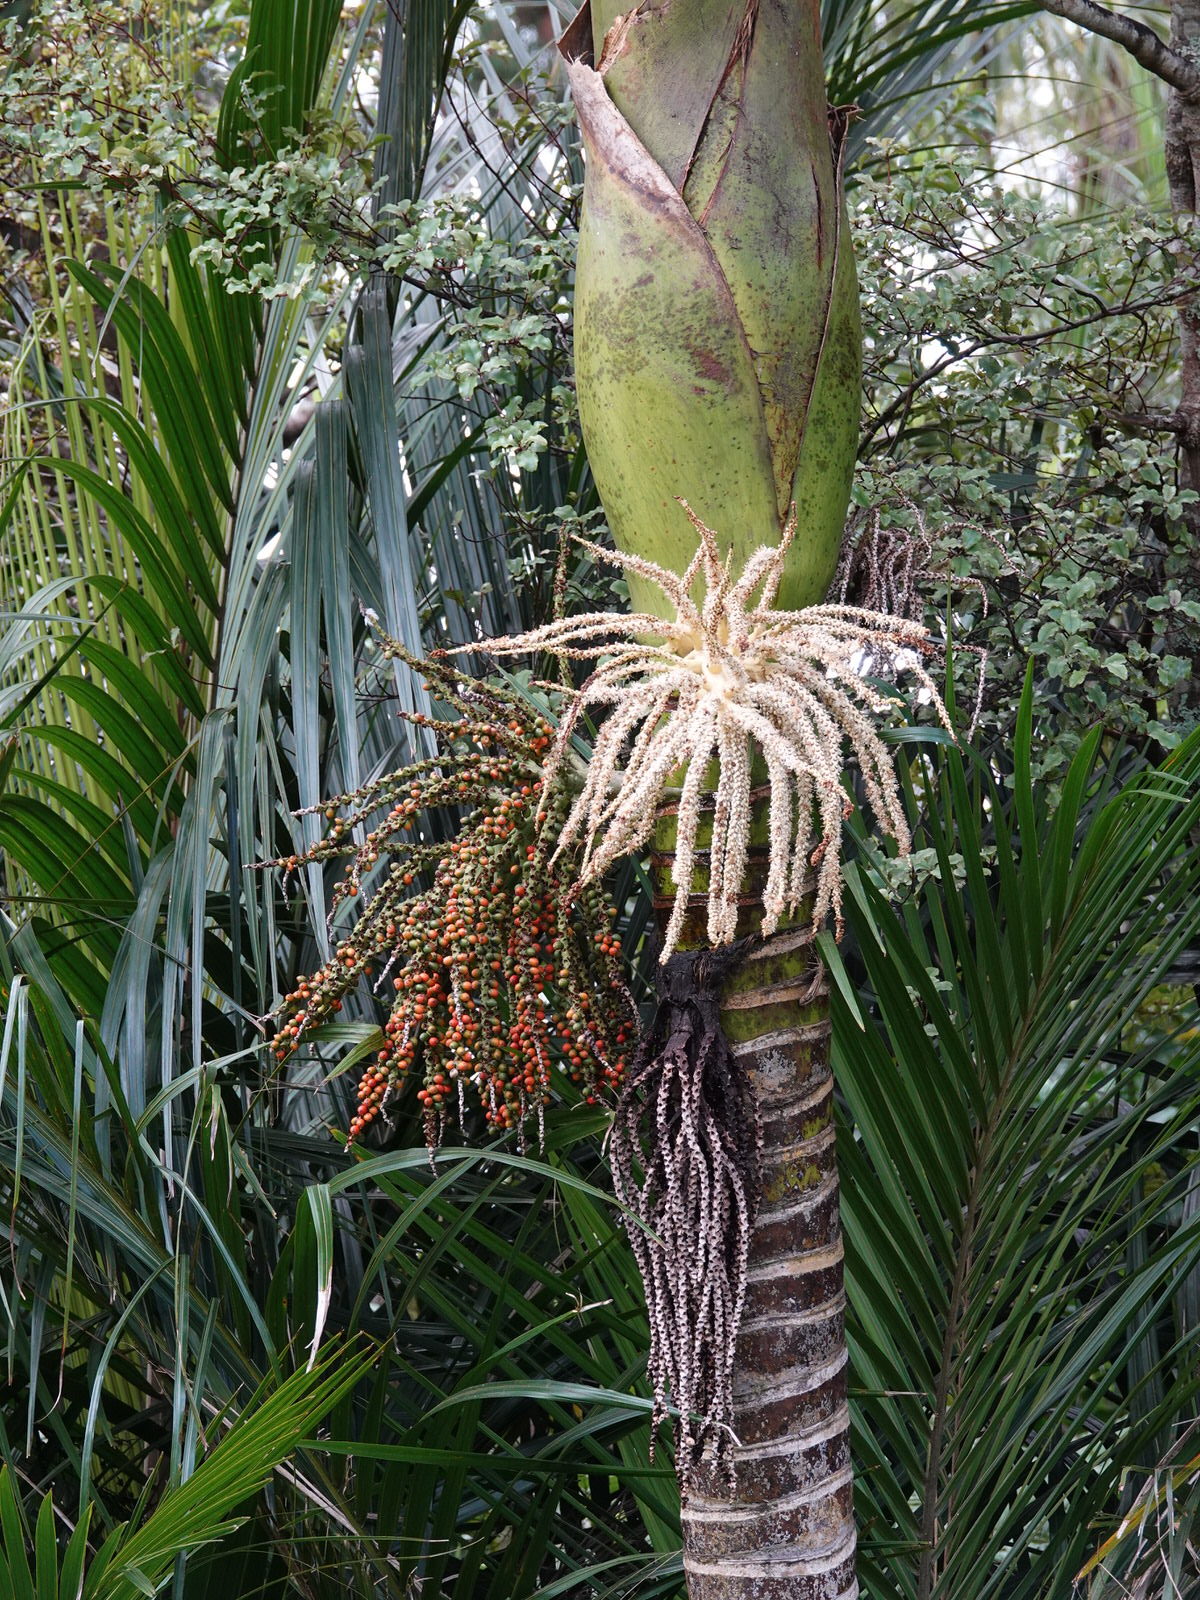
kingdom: Plantae
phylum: Tracheophyta
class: Liliopsida
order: Arecales
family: Arecaceae
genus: Rhopalostylis
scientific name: Rhopalostylis sapida
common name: Feather-duster palm
